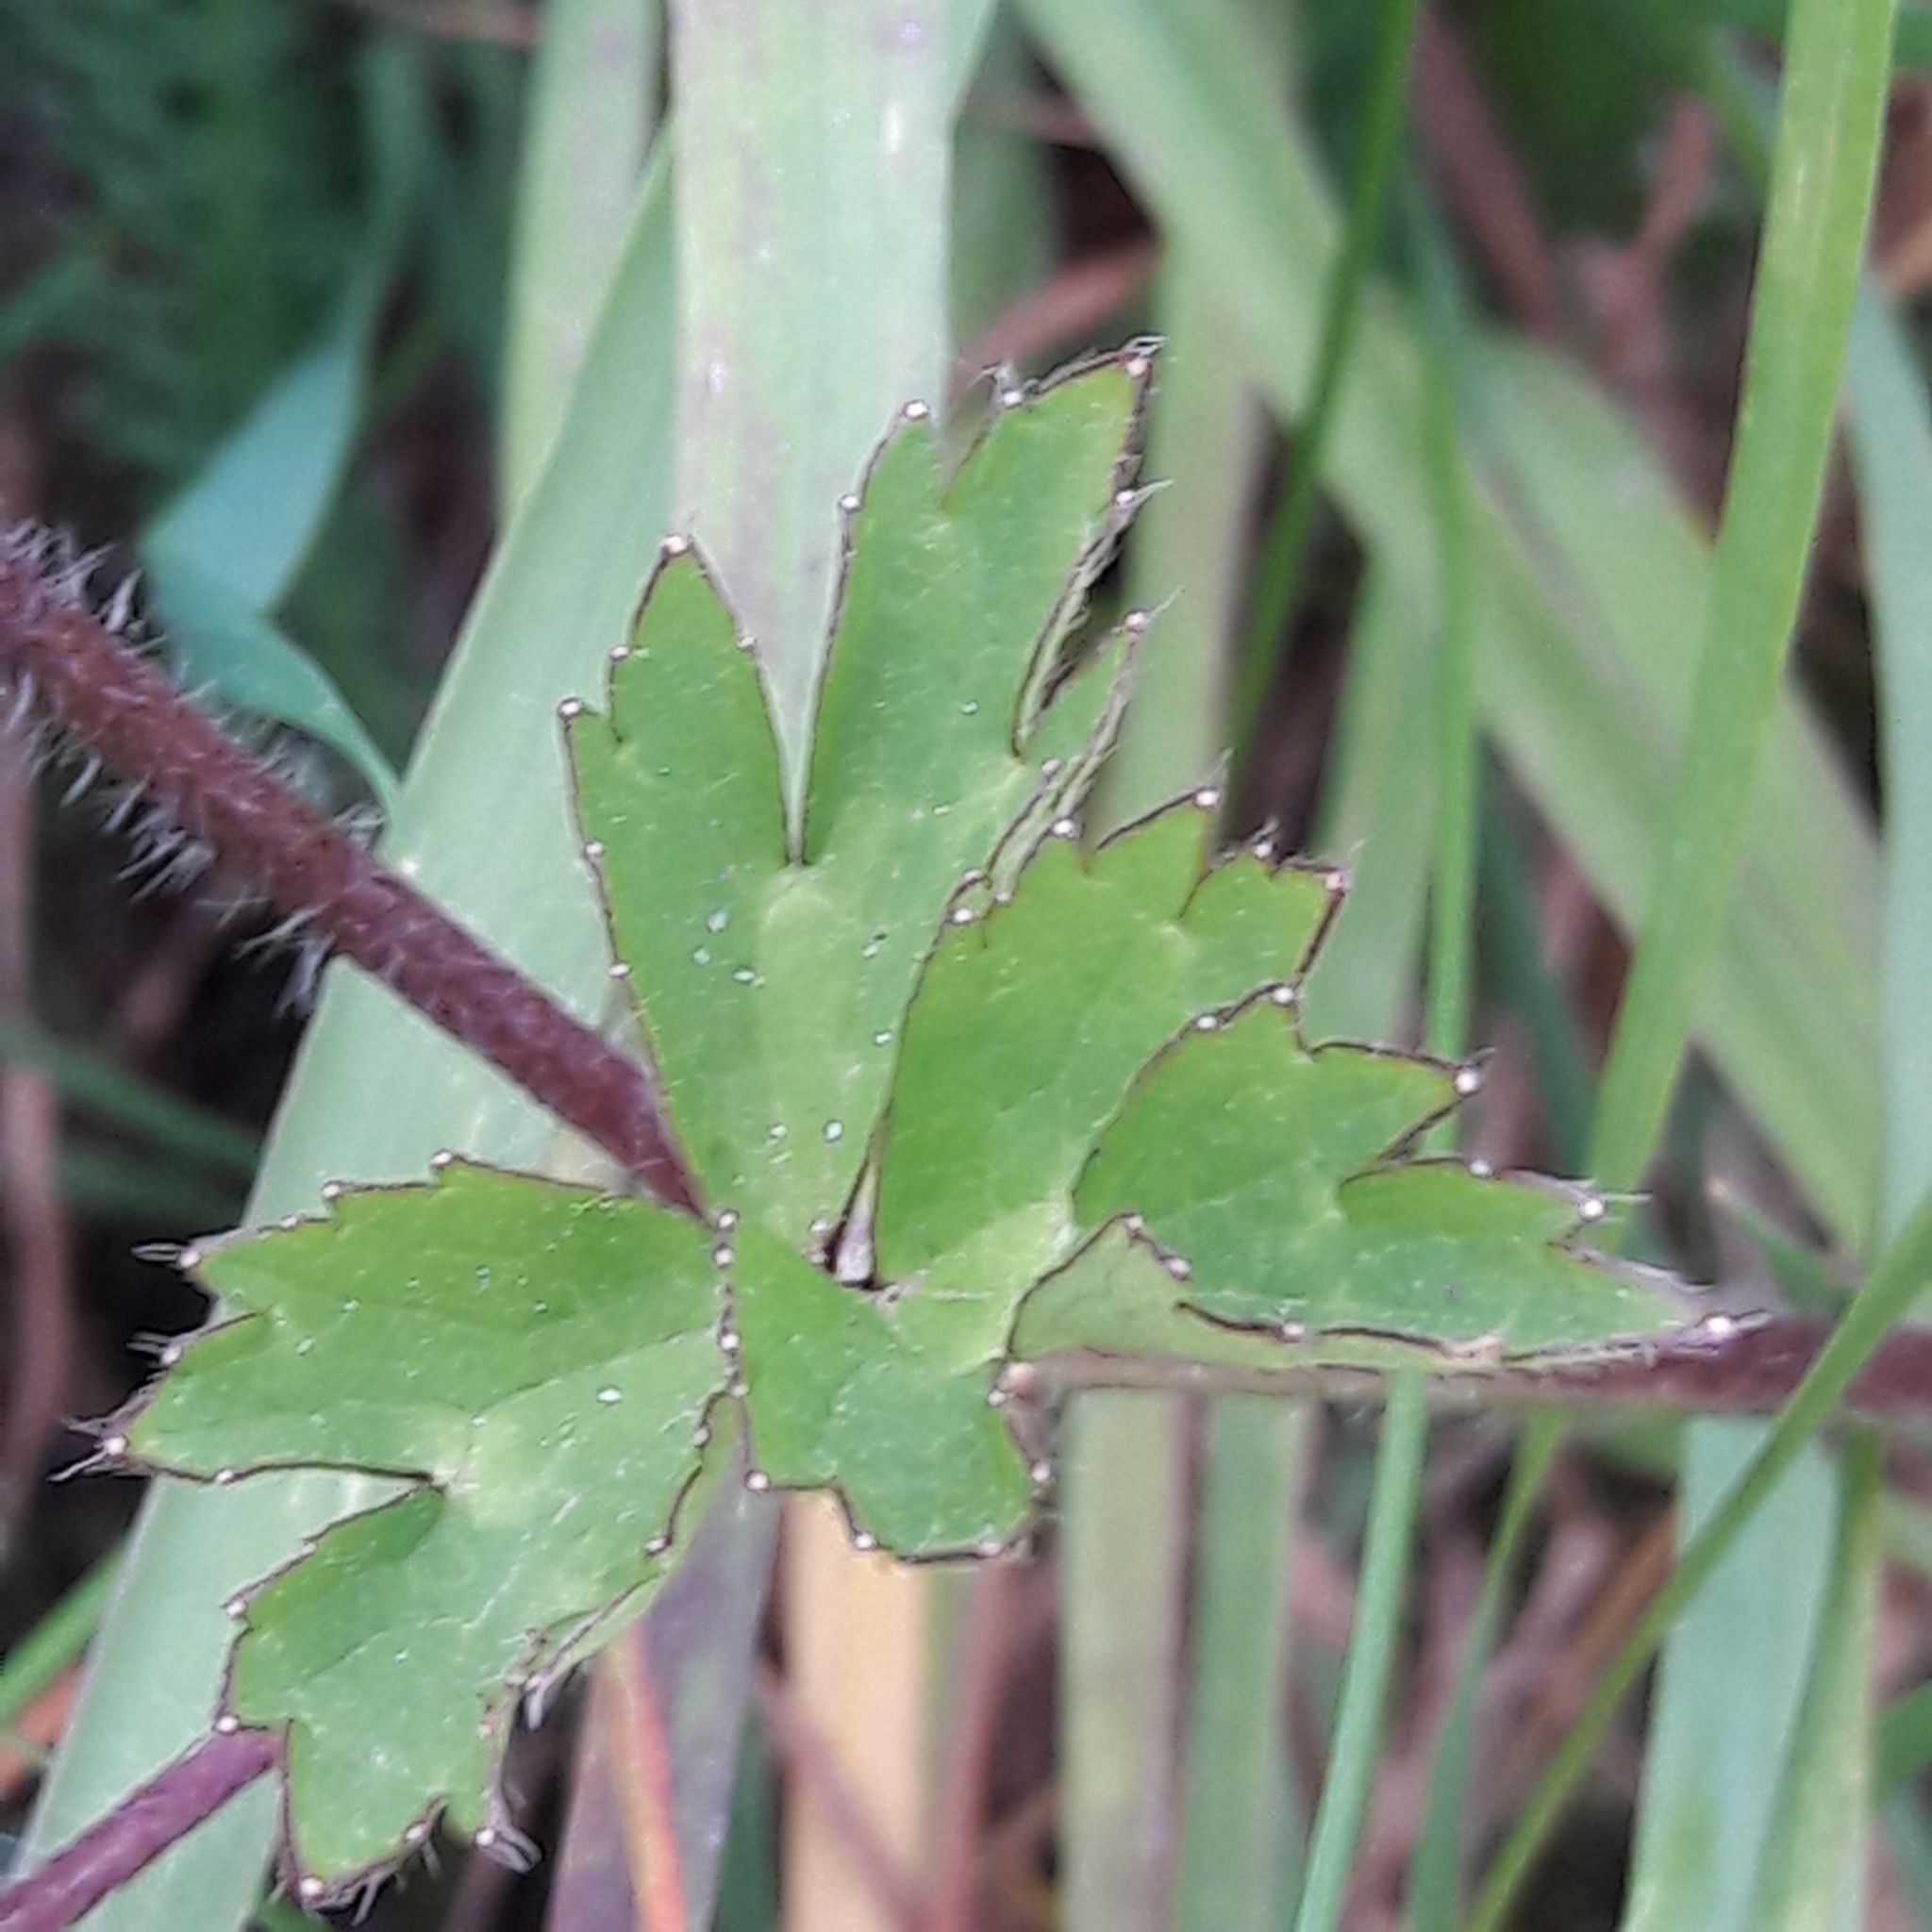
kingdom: Plantae
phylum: Tracheophyta
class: Magnoliopsida
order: Ranunculales
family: Ranunculaceae
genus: Ranunculus
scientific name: Ranunculus repens
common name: Creeping buttercup
